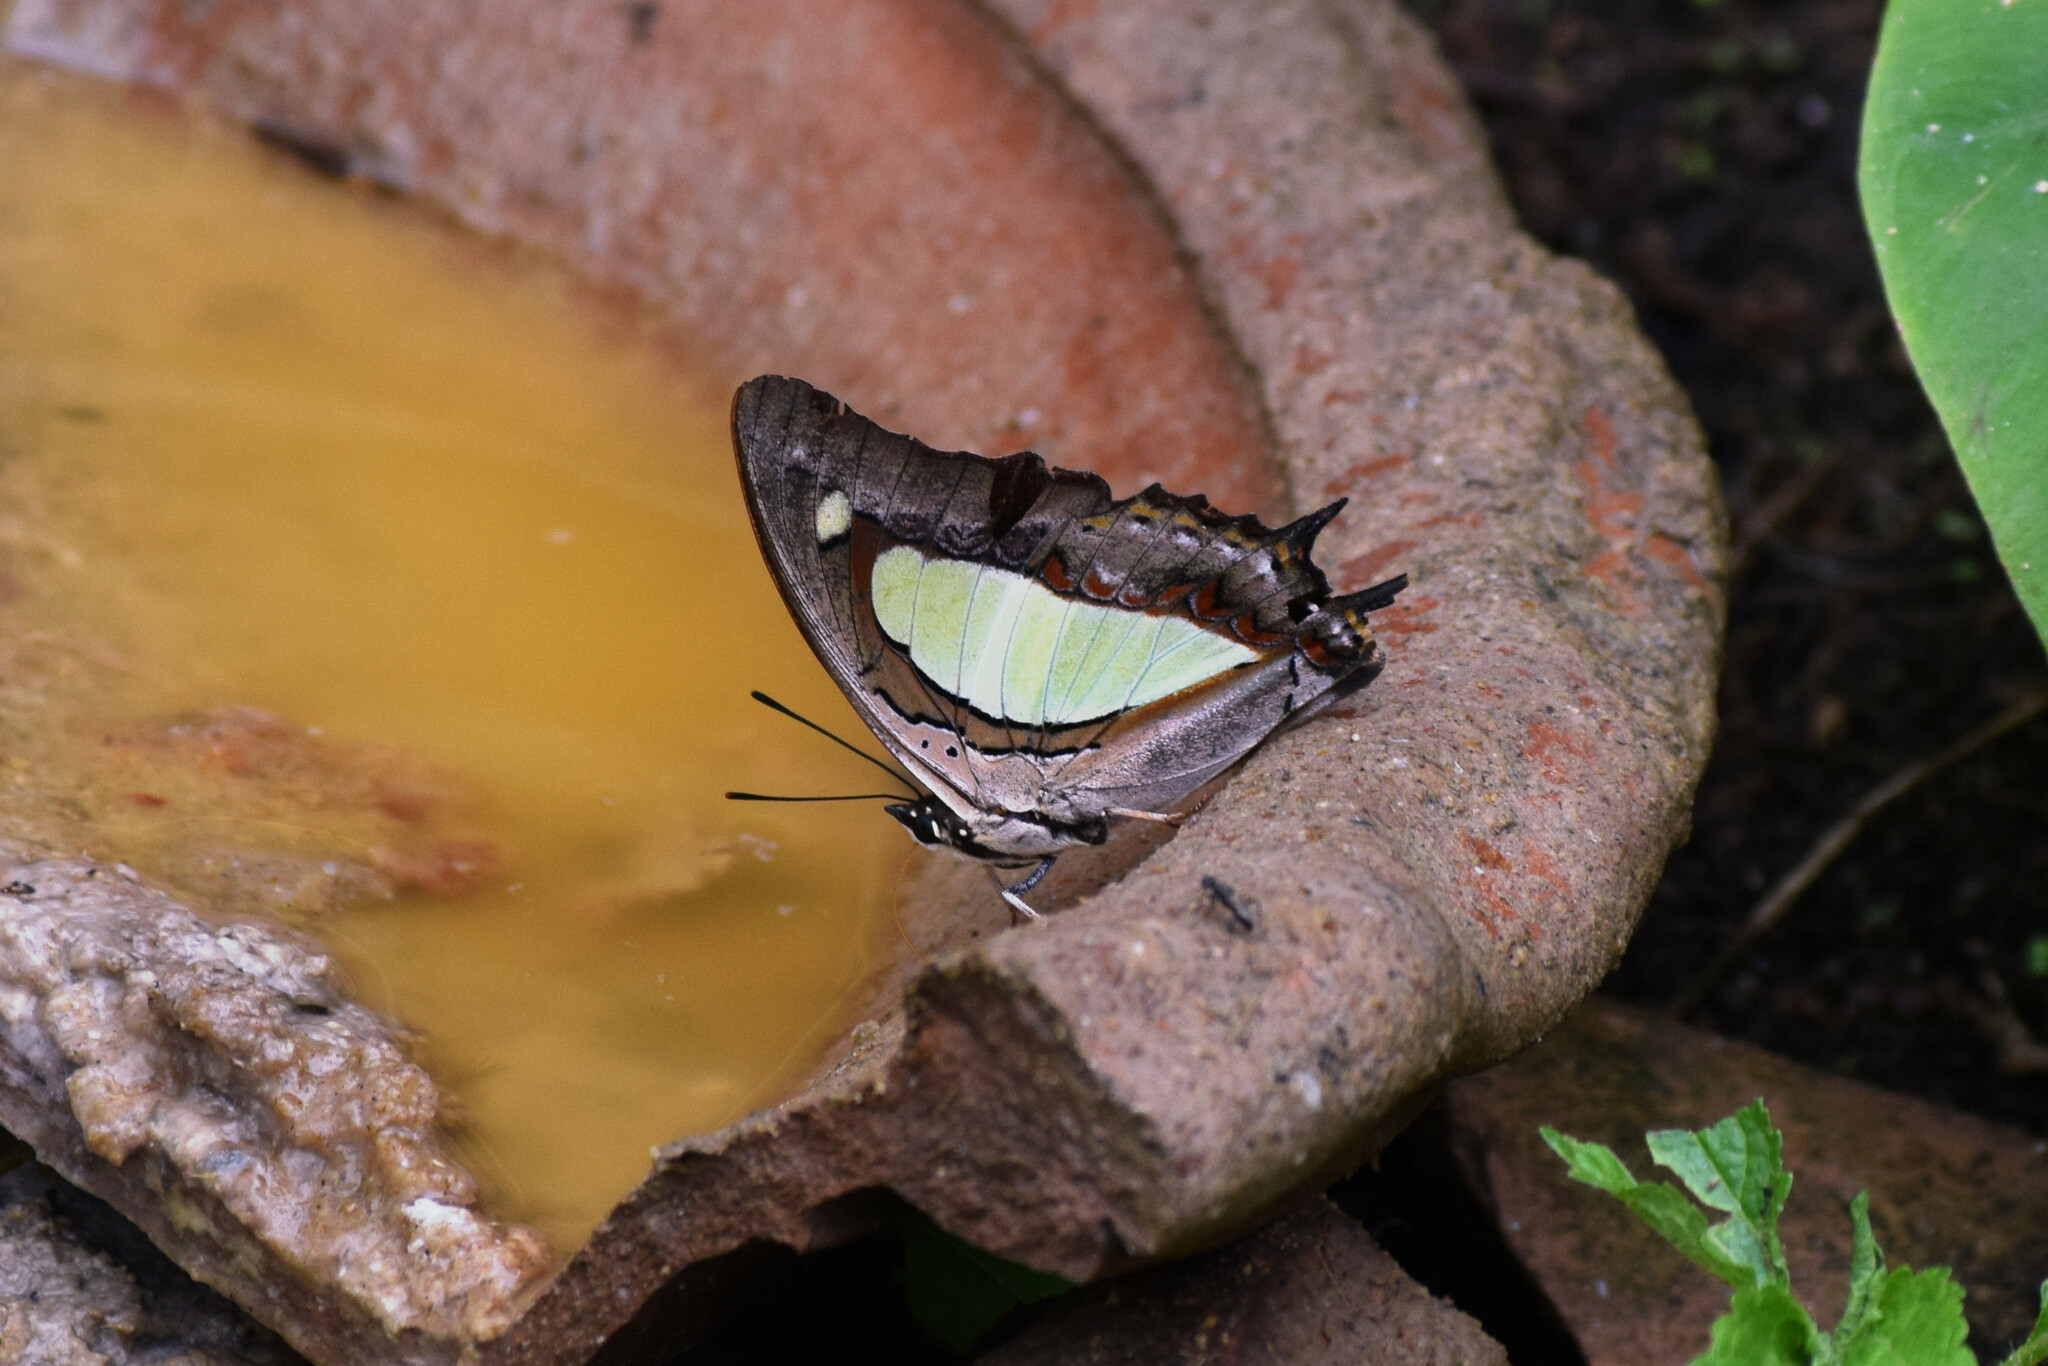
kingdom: Animalia
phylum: Arthropoda
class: Insecta
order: Lepidoptera
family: Nymphalidae
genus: Polyura
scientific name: Polyura athamas
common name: Common nawab
